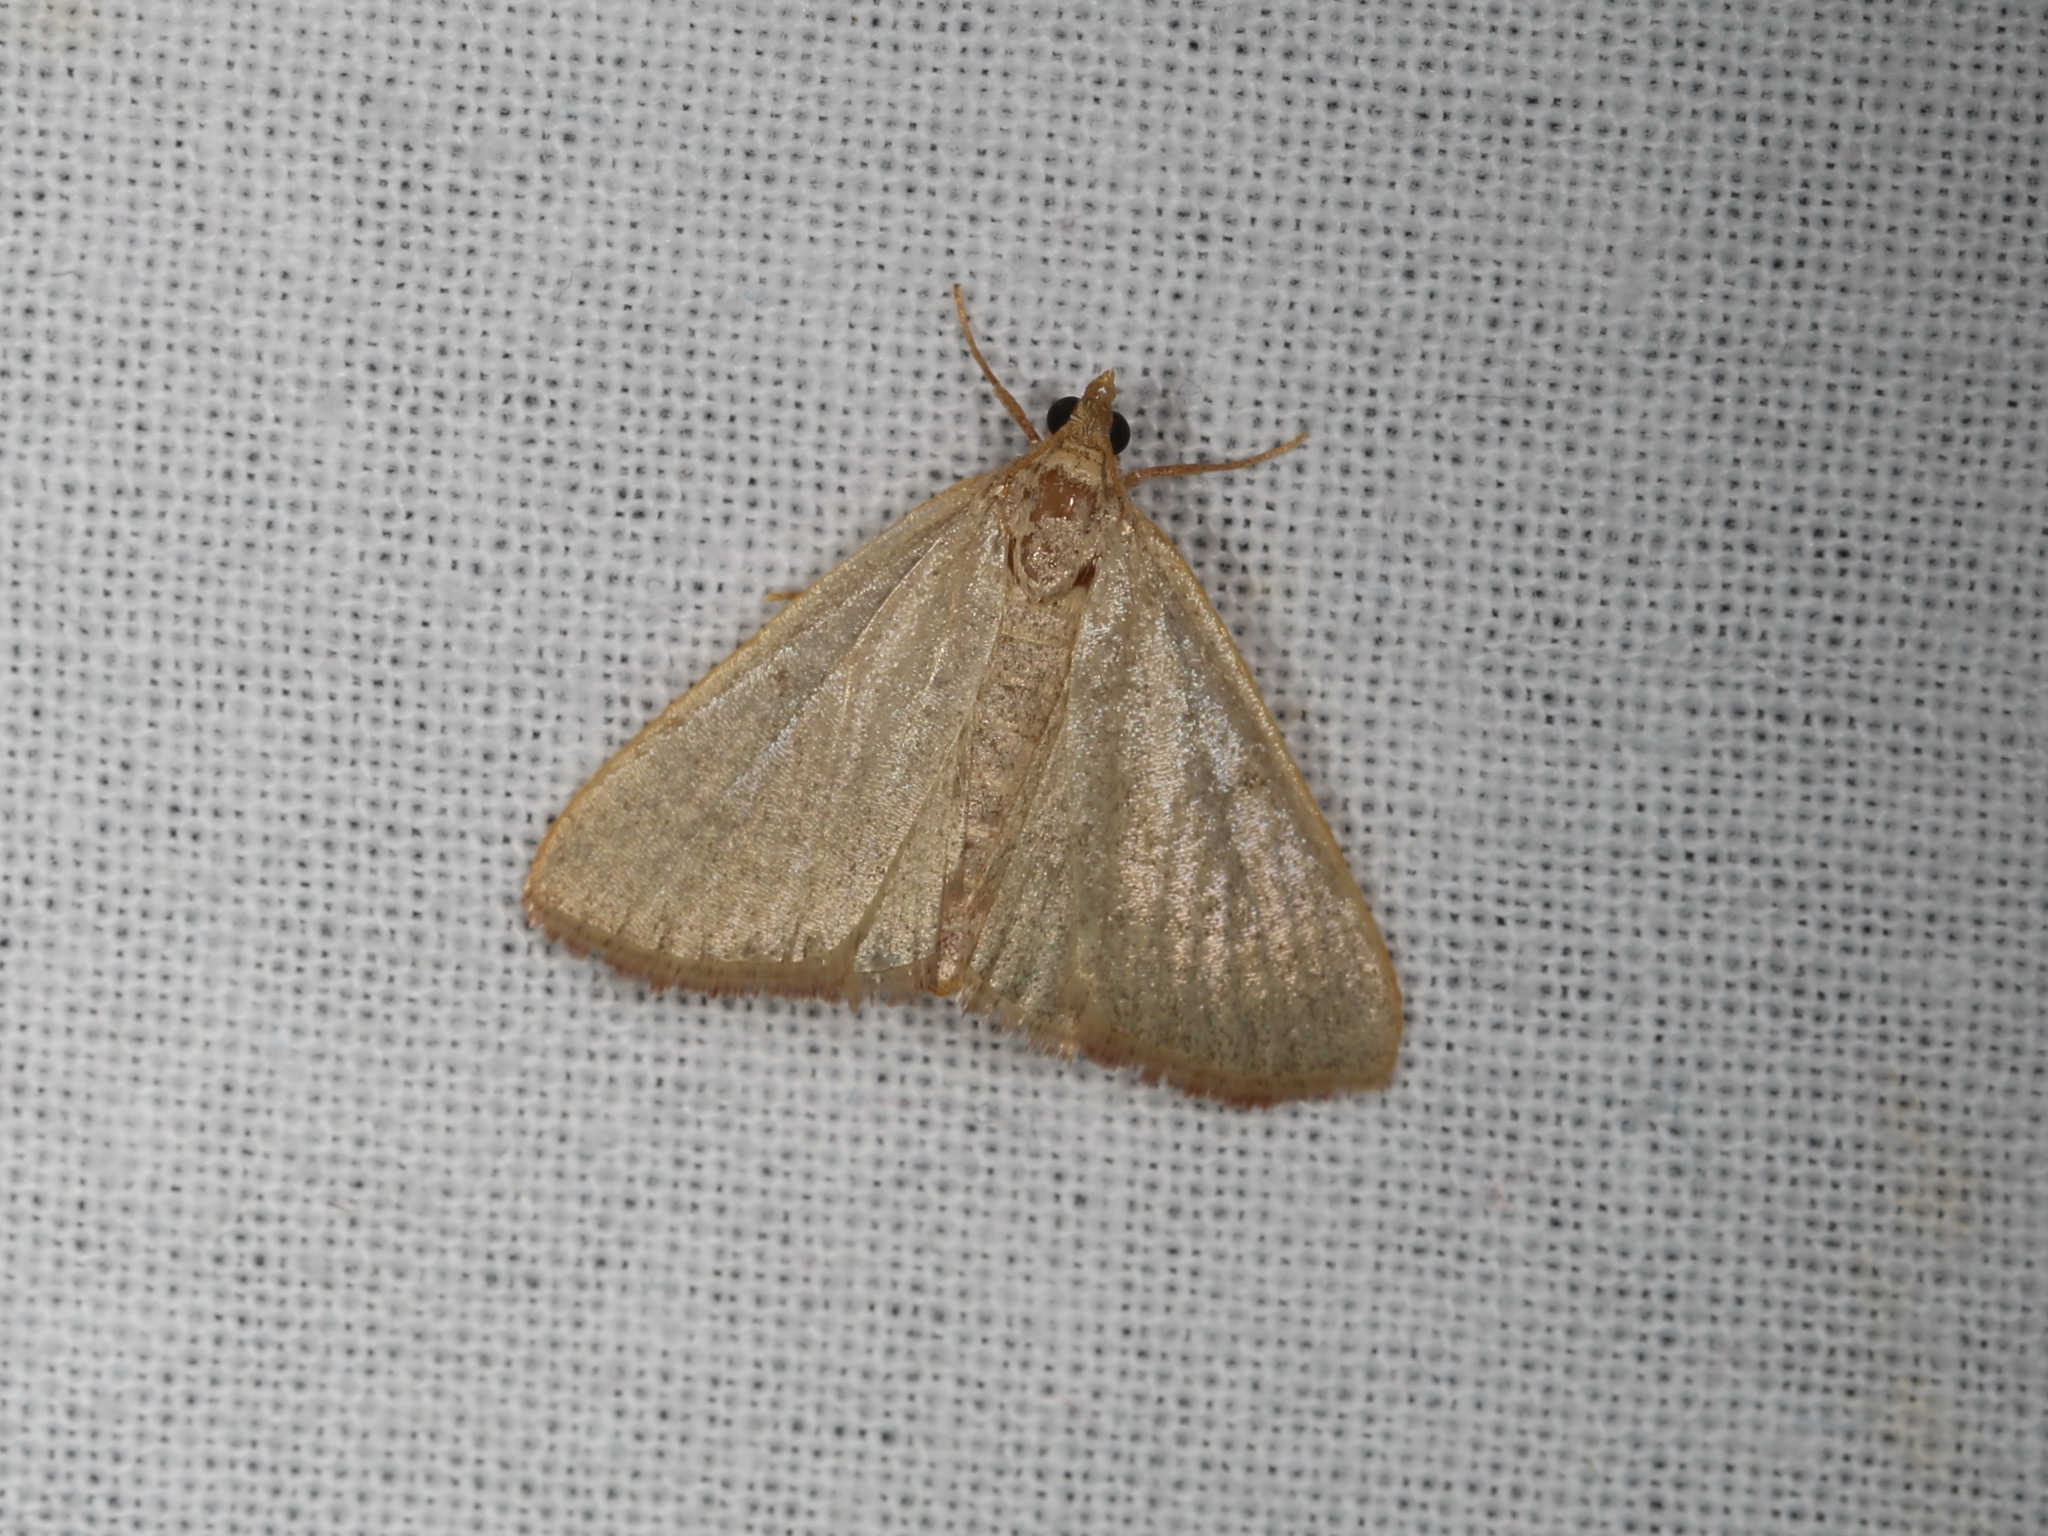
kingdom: Animalia
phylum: Arthropoda
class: Insecta
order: Lepidoptera
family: Pyralidae
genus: Hypsopygia
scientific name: Hypsopygia
